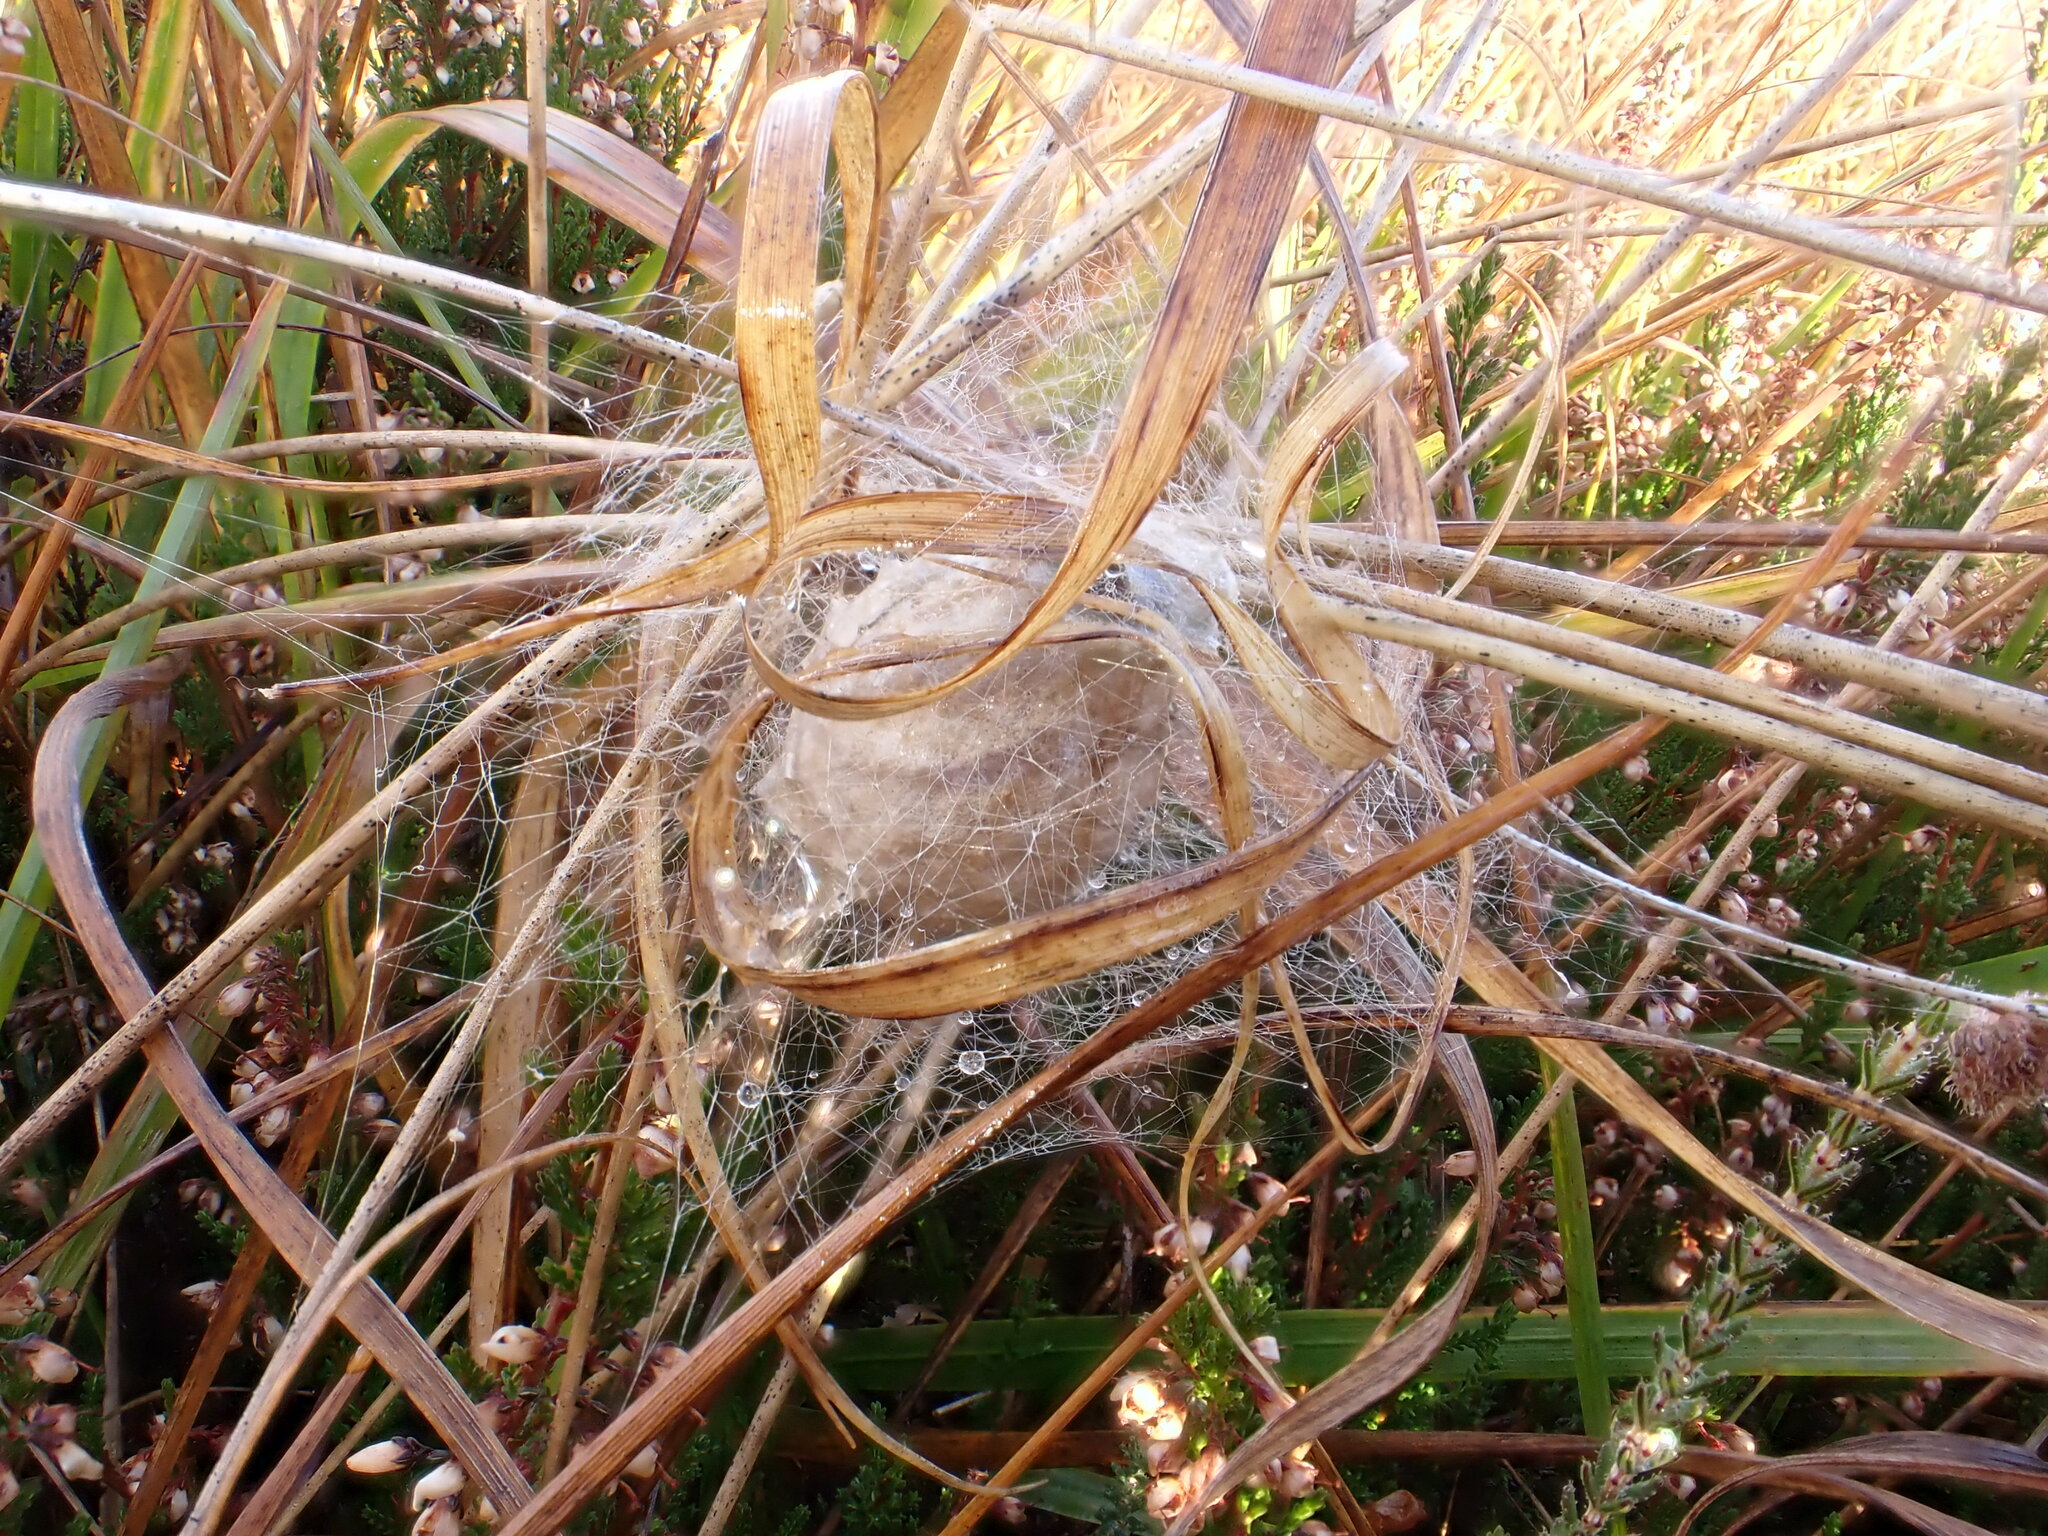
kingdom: Animalia
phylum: Arthropoda
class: Arachnida
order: Araneae
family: Araneidae
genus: Argiope
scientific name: Argiope bruennichi
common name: Wasp spider
